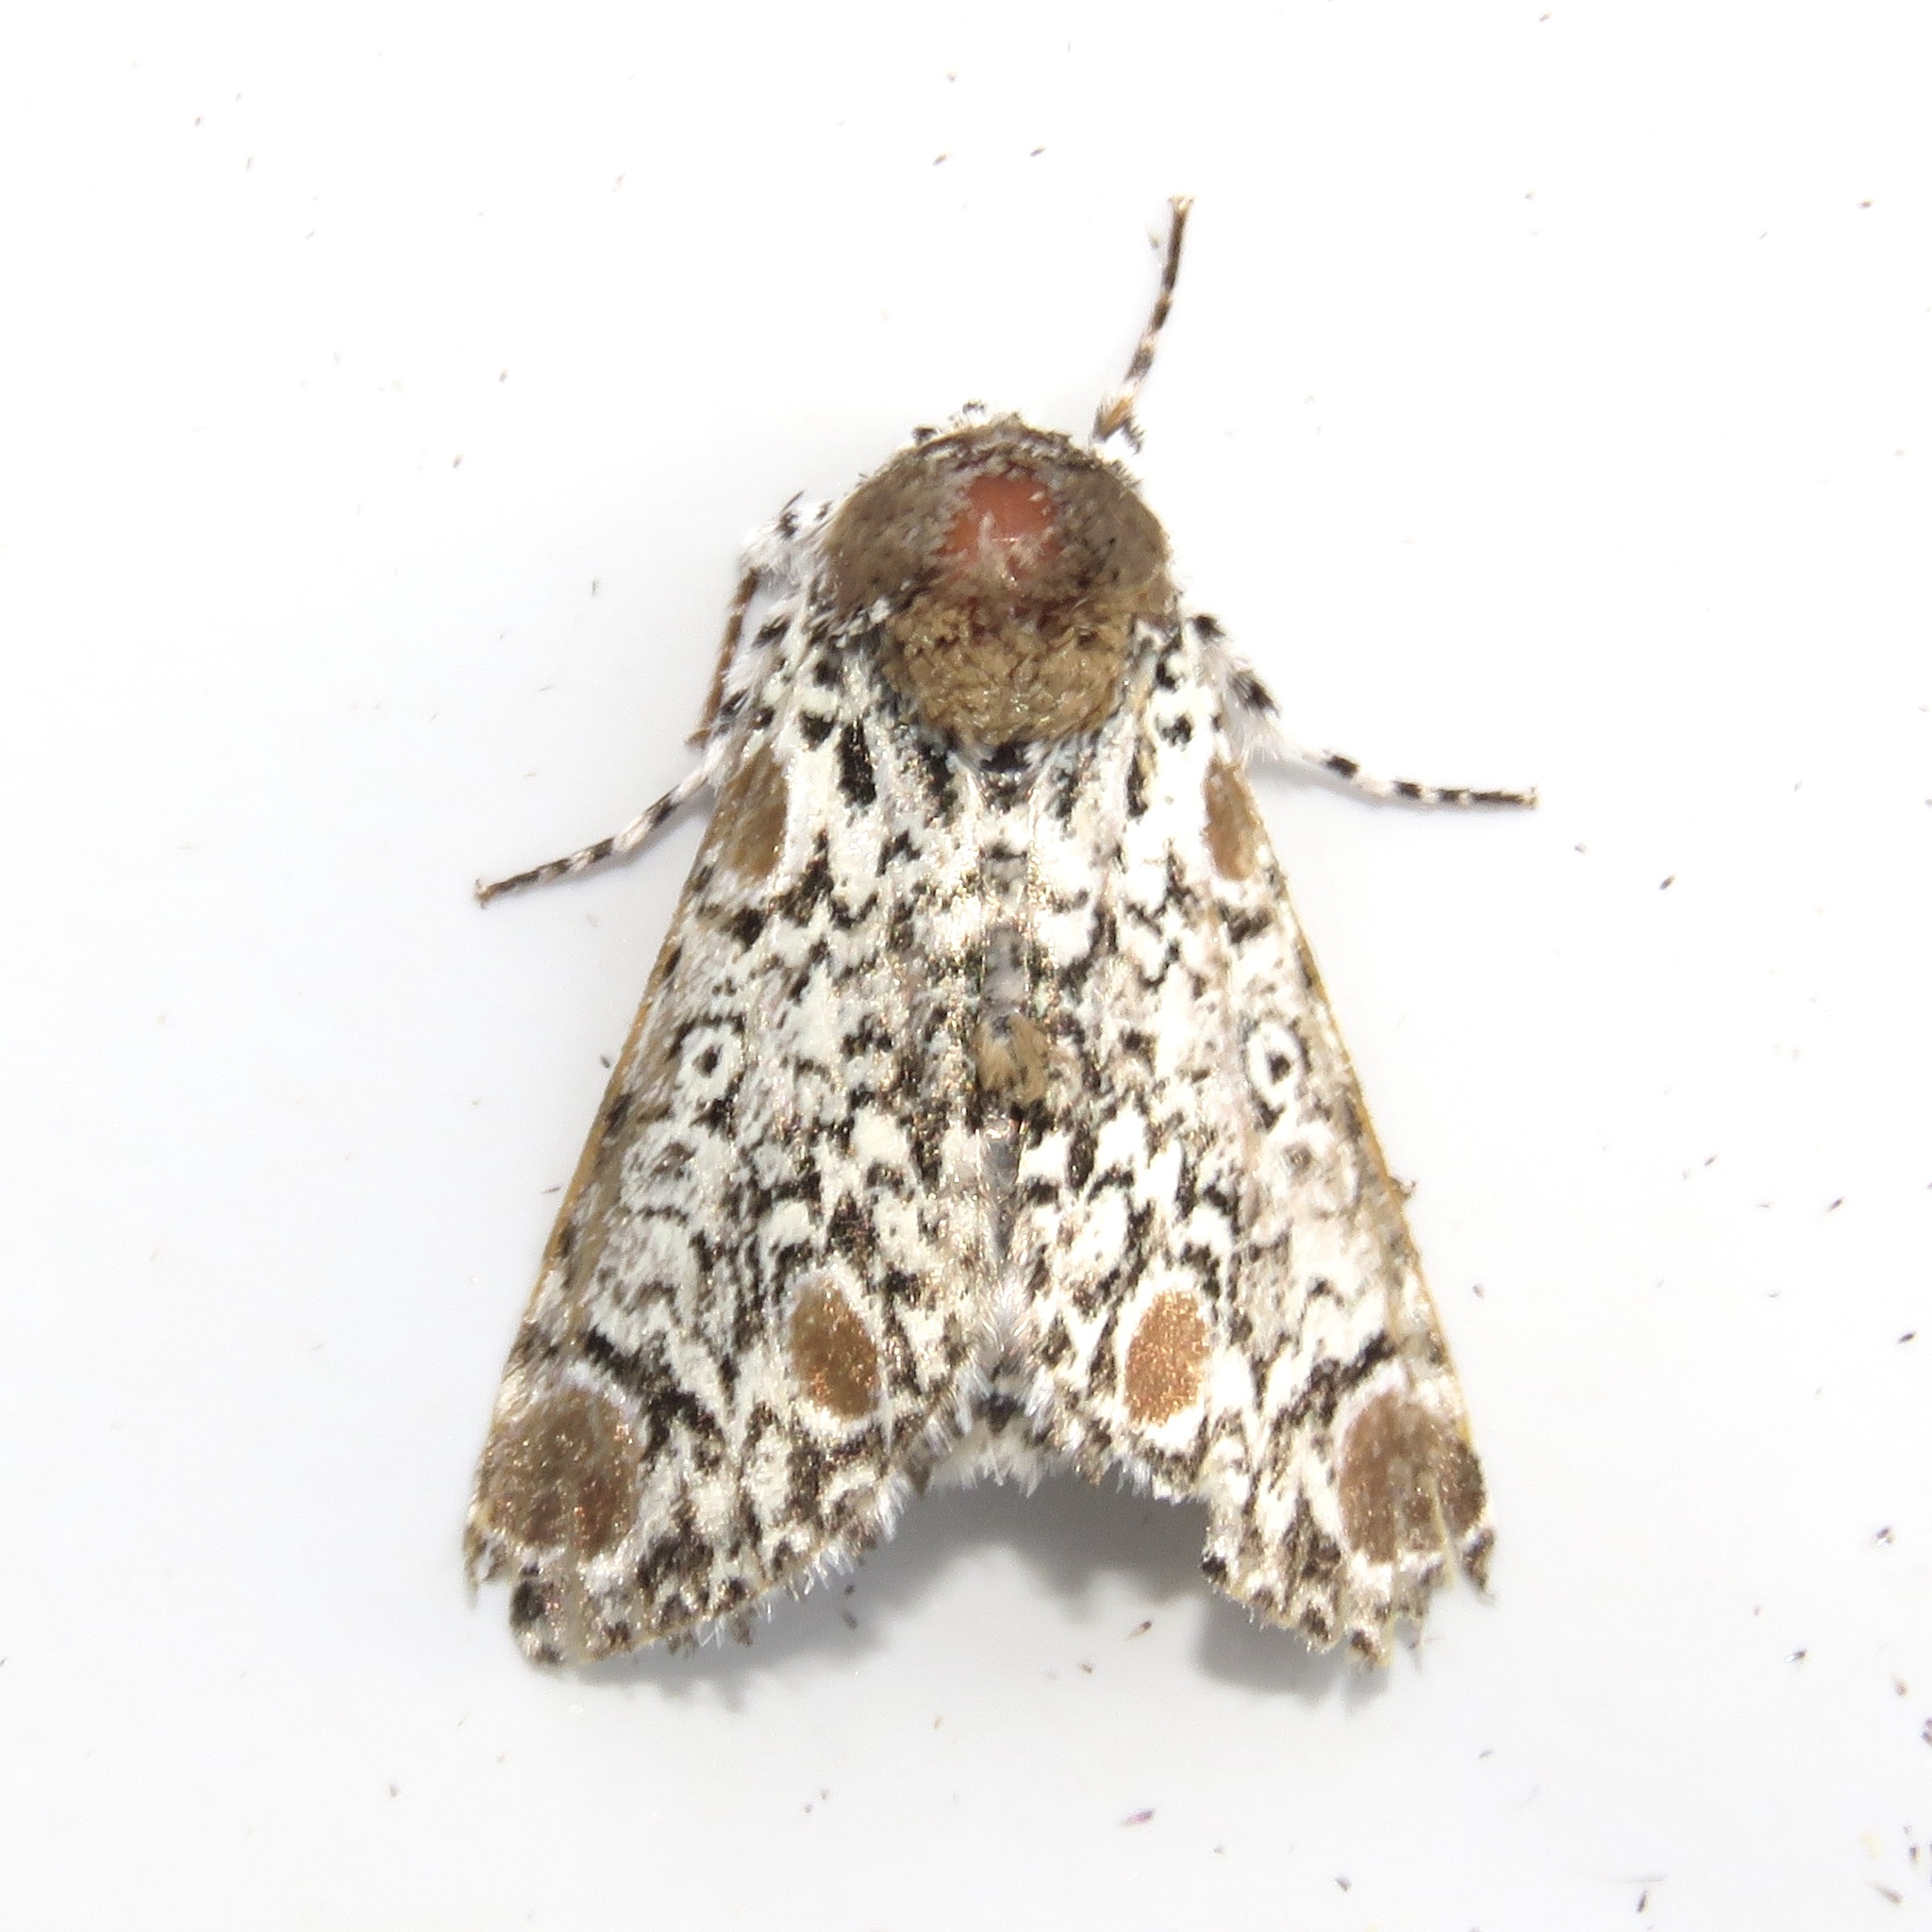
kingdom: Animalia
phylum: Arthropoda
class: Insecta
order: Lepidoptera
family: Noctuidae
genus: Harrisimemna
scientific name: Harrisimemna trisignata
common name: Harris threespot
